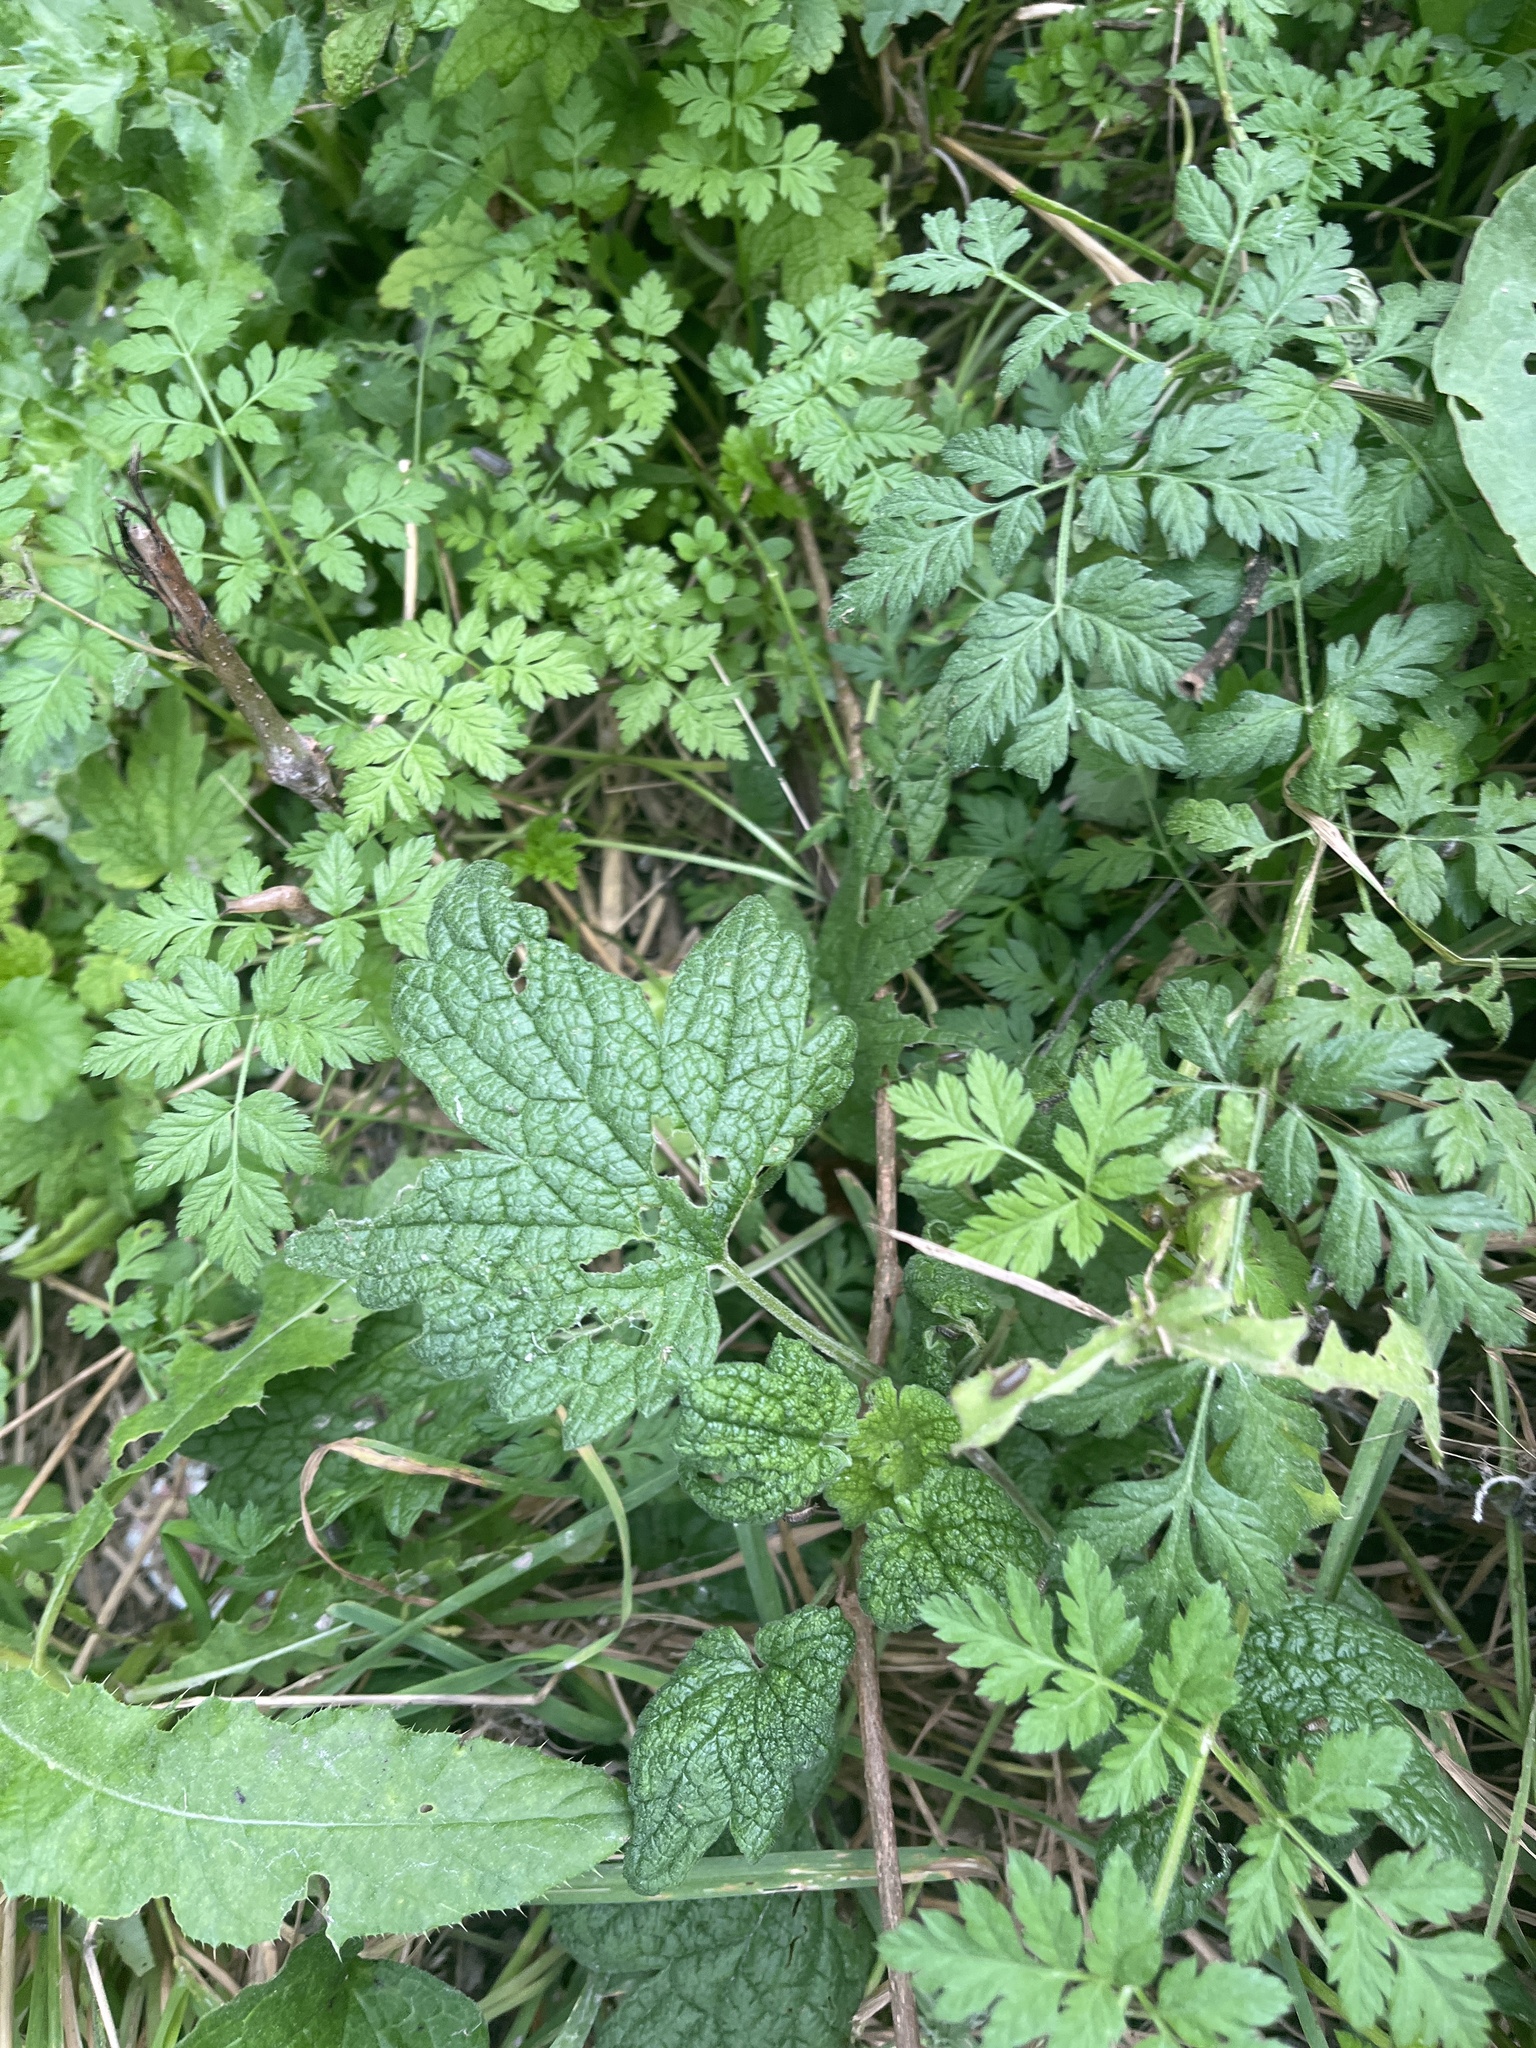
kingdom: Plantae
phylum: Tracheophyta
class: Magnoliopsida
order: Lamiales
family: Lamiaceae
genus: Leonurus
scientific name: Leonurus cardiaca
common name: Motherwort
